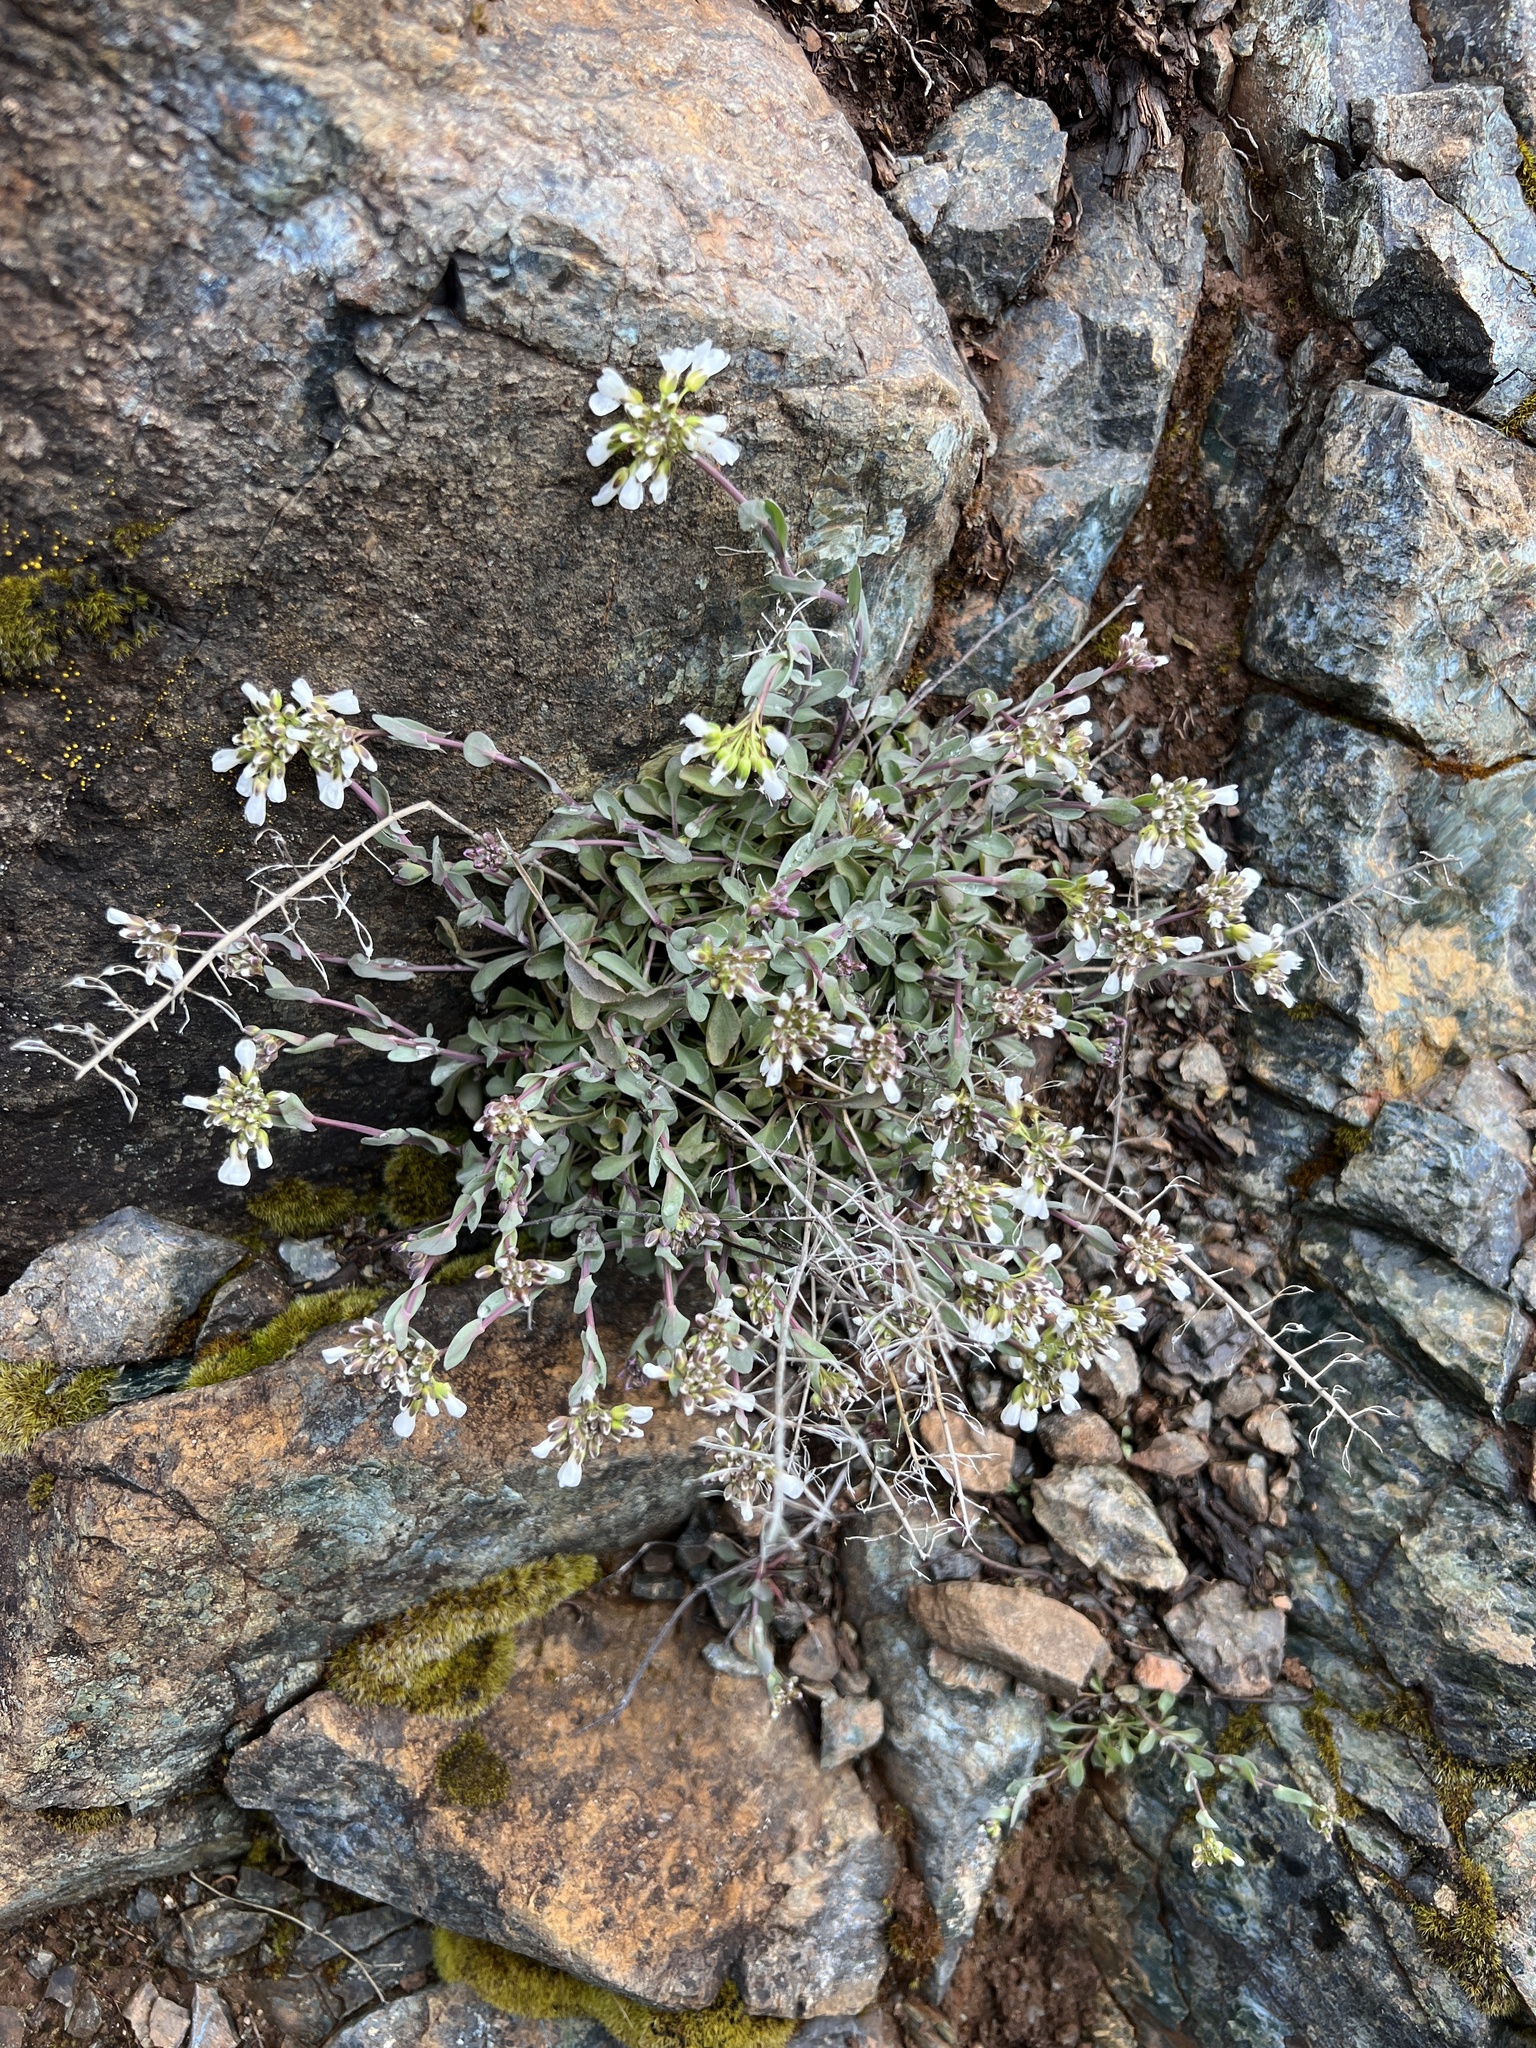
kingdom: Plantae
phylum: Tracheophyta
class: Magnoliopsida
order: Brassicales
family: Brassicaceae
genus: Noccaea
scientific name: Noccaea fendleri
